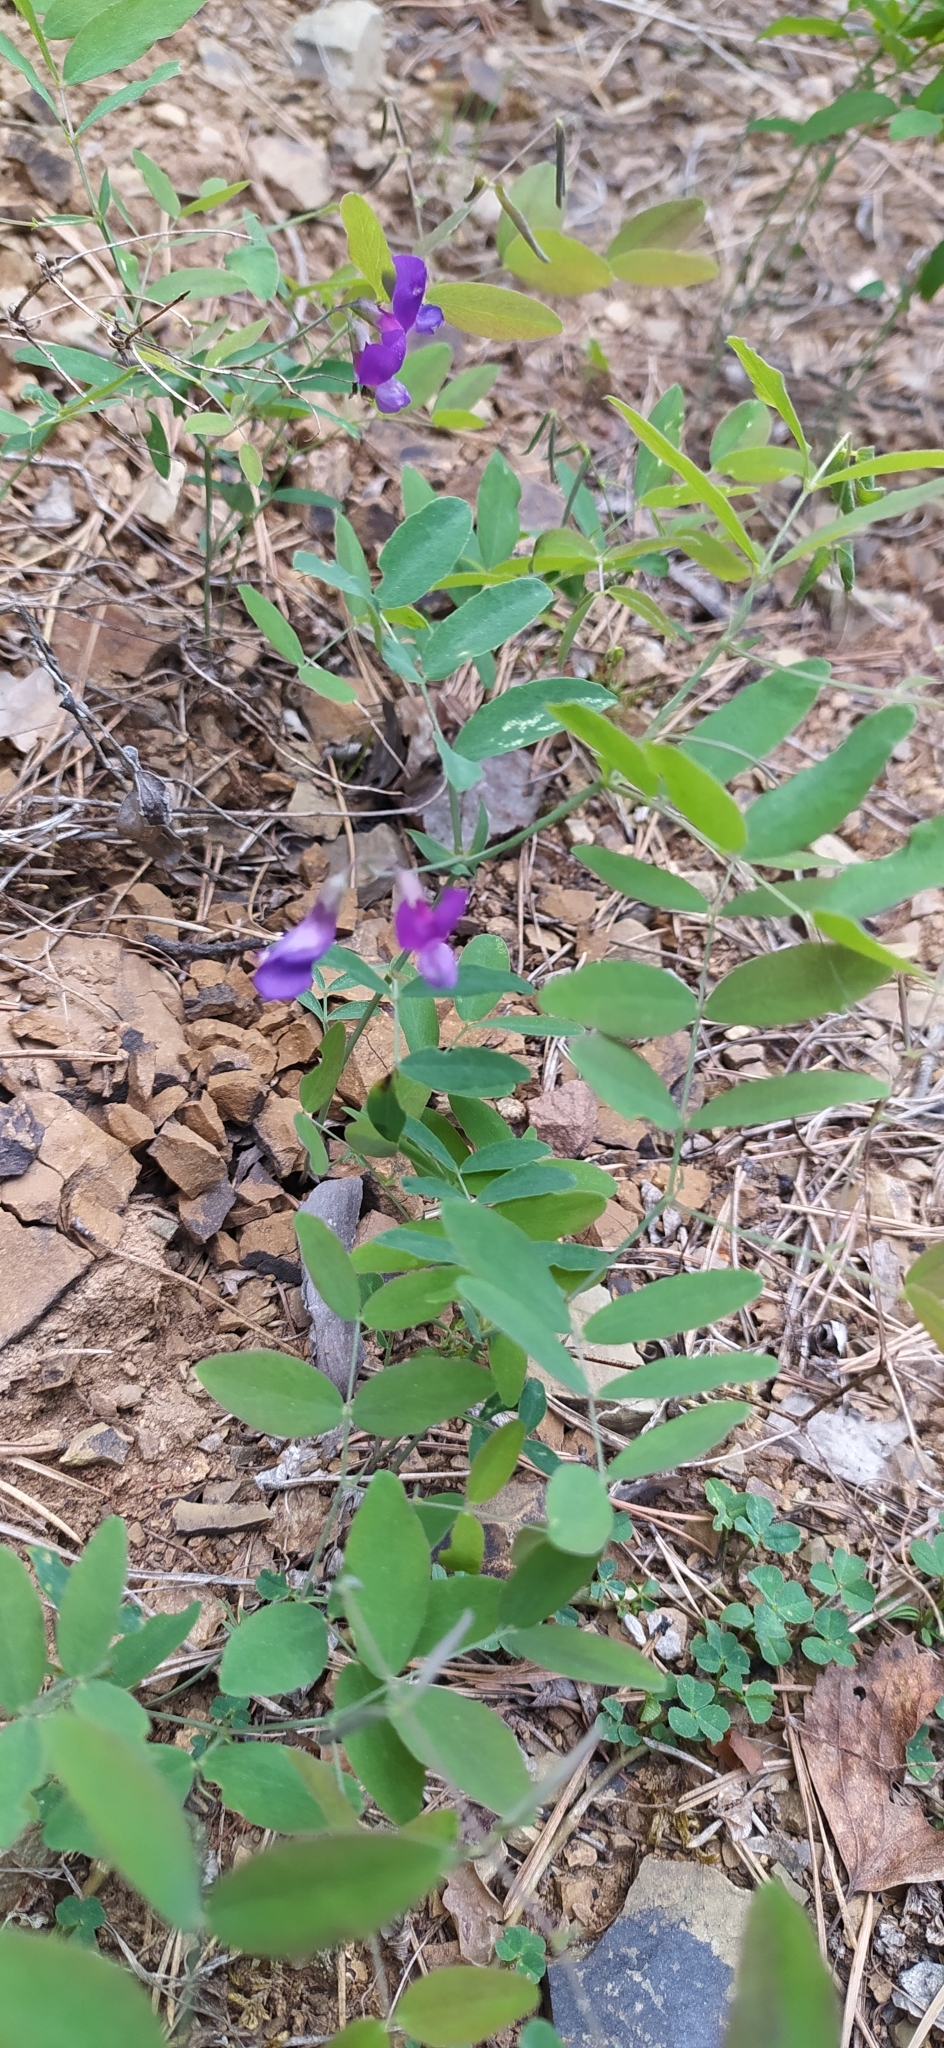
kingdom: Plantae
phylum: Tracheophyta
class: Magnoliopsida
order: Fabales
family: Fabaceae
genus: Lathyrus
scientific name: Lathyrus humilis
